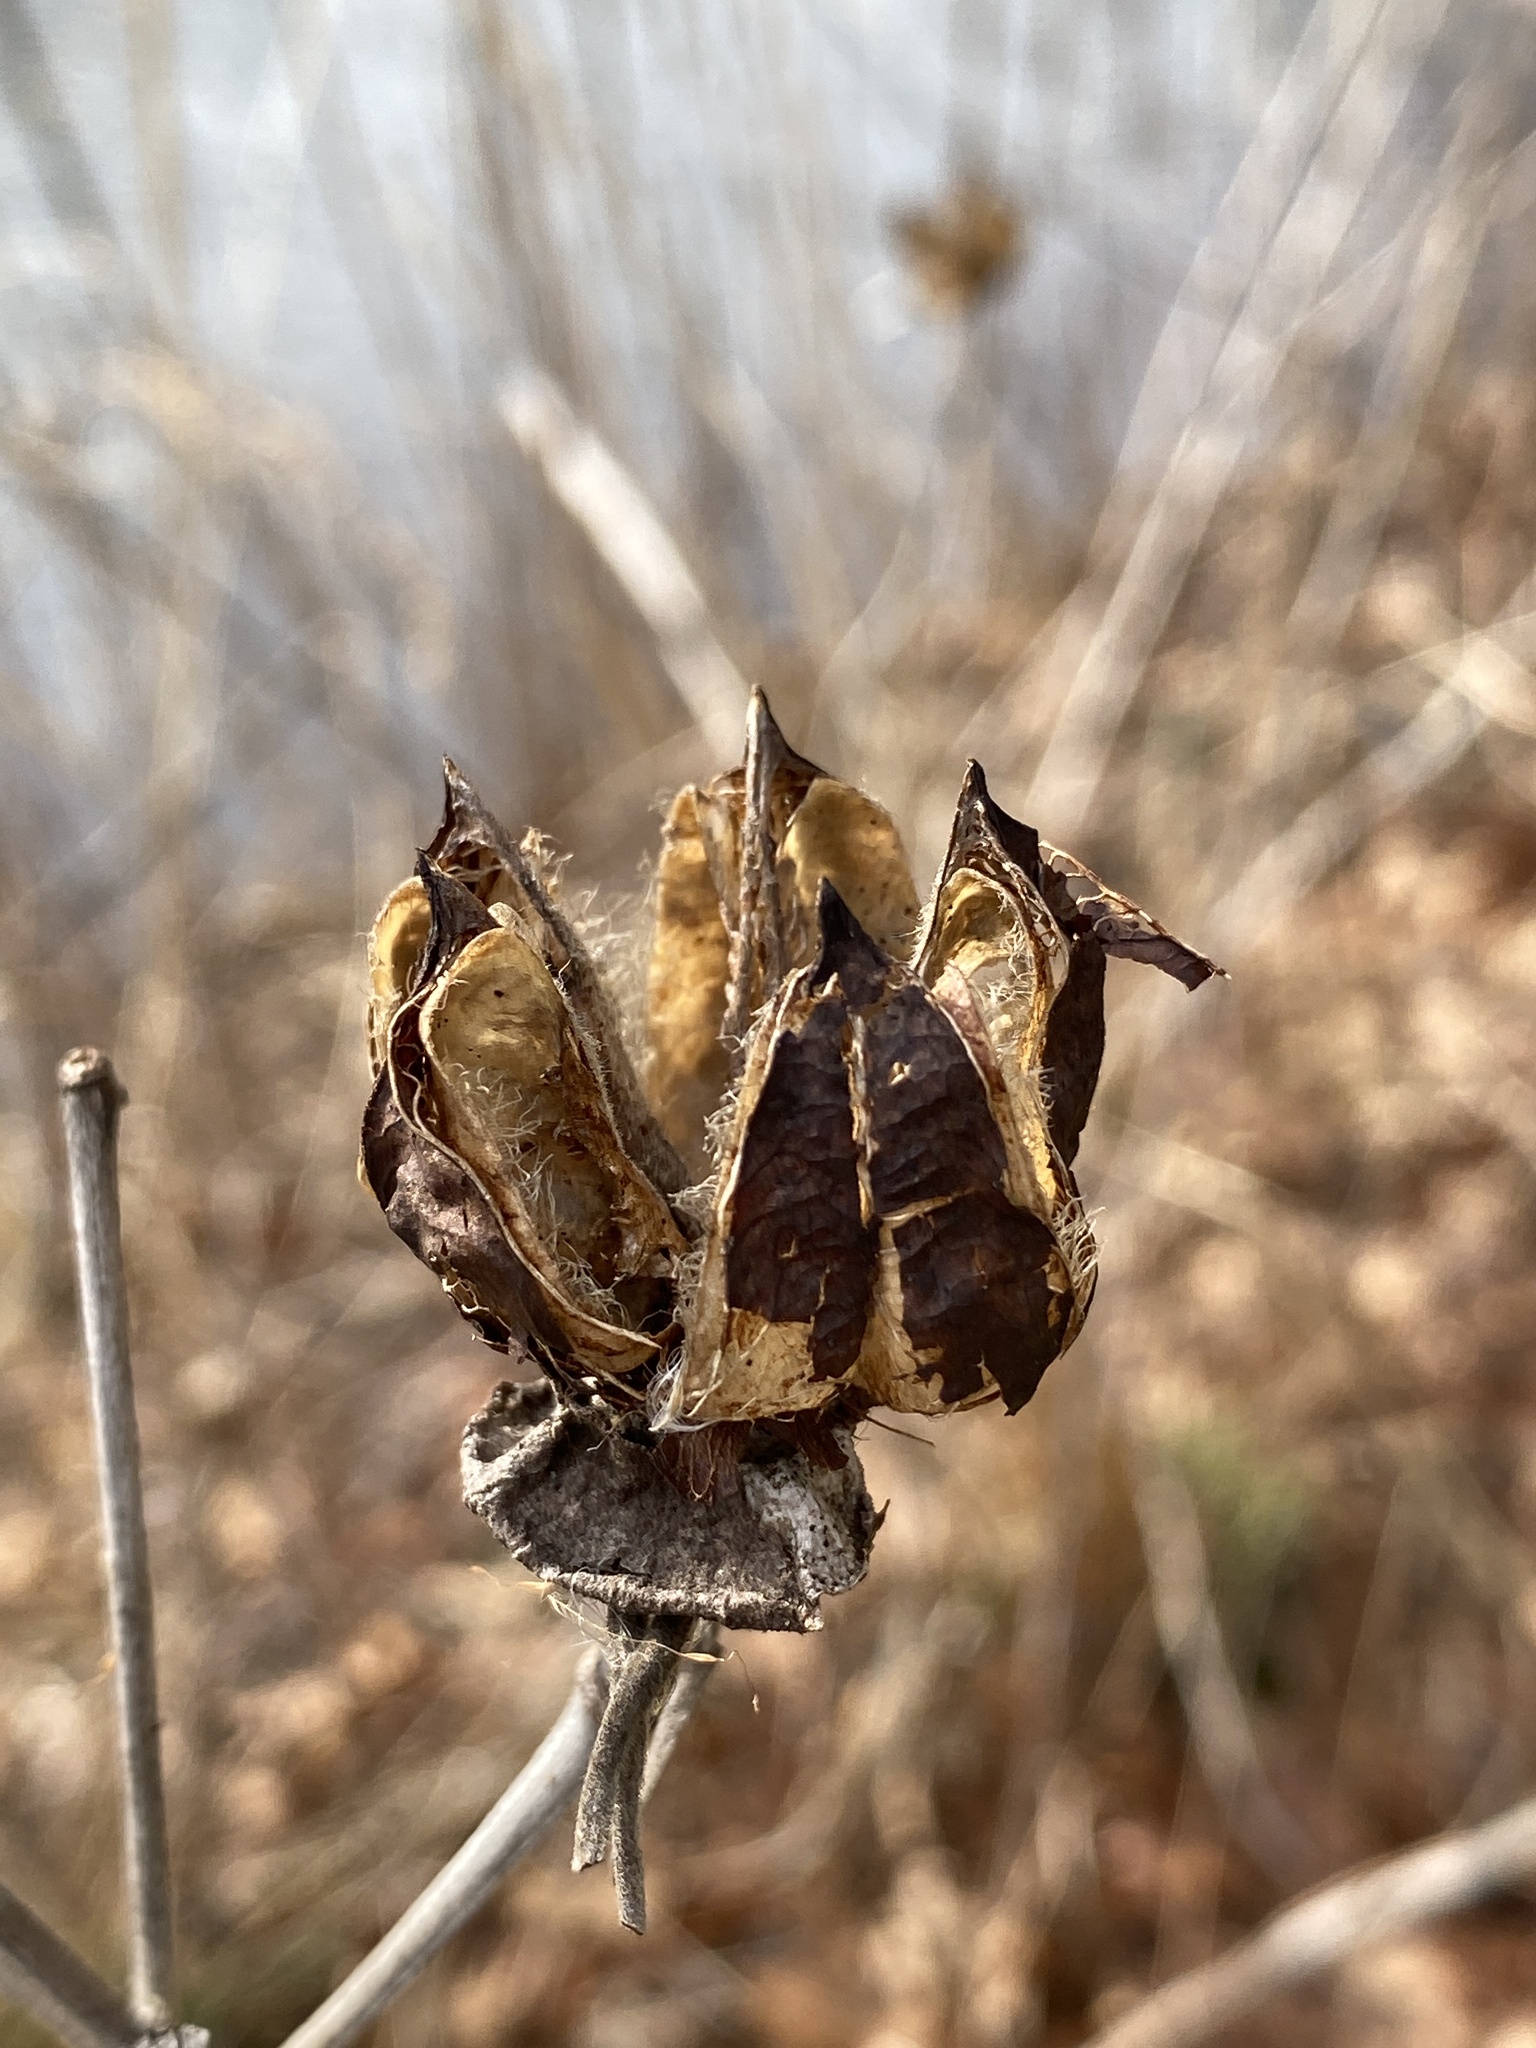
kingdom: Plantae
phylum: Tracheophyta
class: Magnoliopsida
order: Malvales
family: Malvaceae
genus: Hibiscus
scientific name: Hibiscus moscheutos
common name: Common rose-mallow
